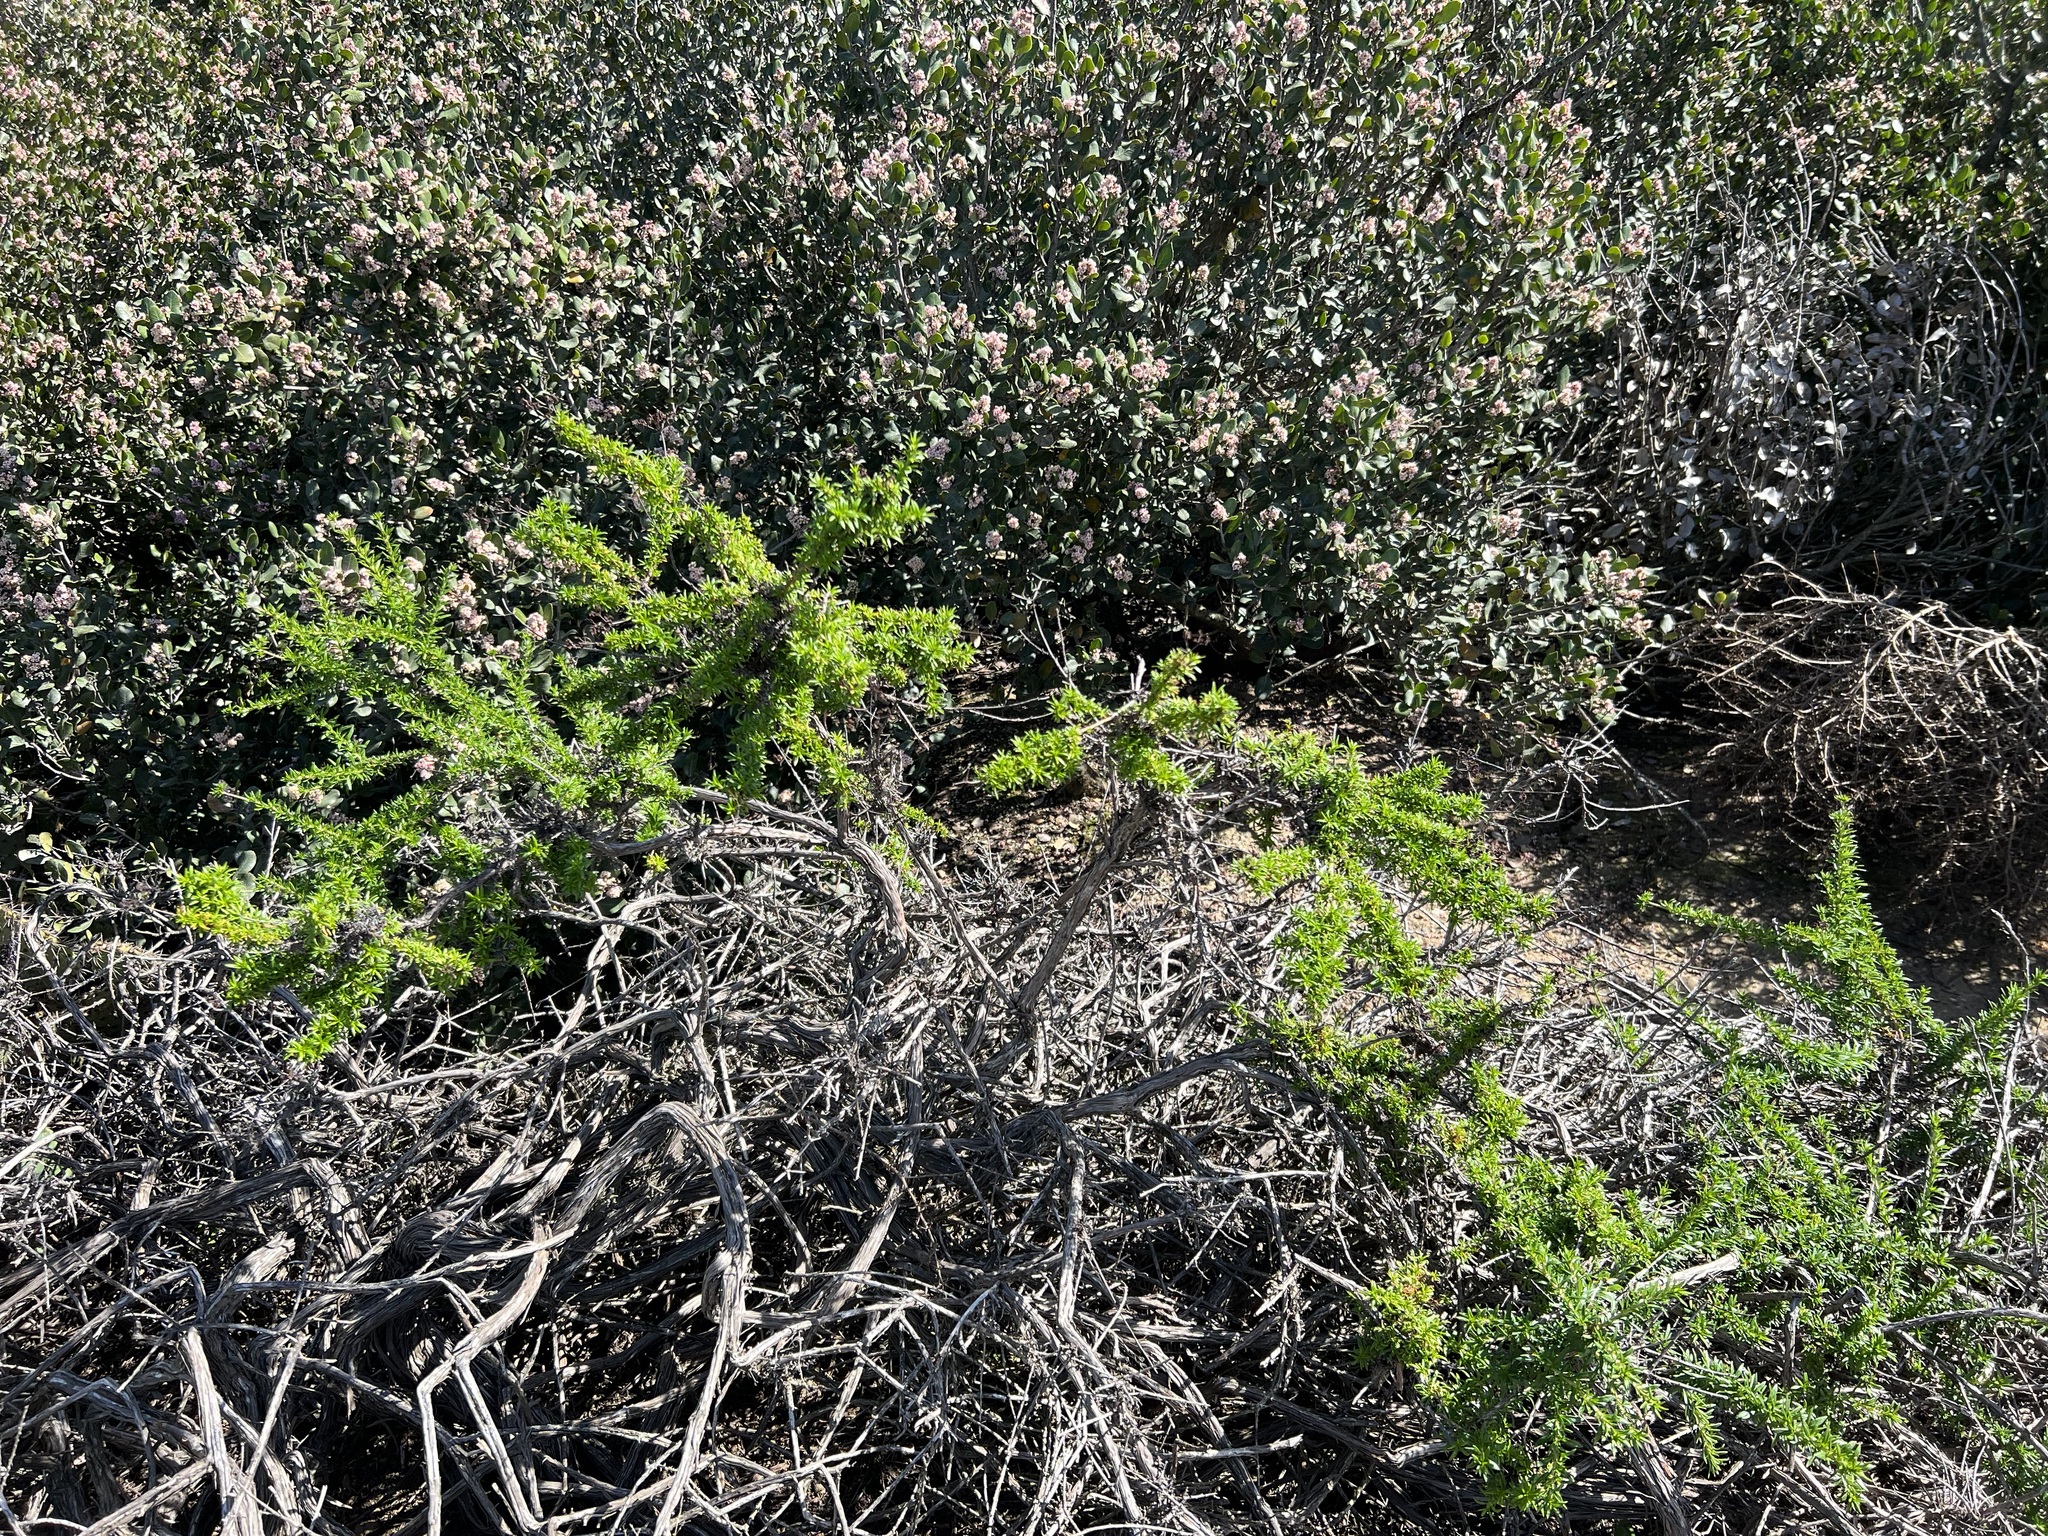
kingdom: Plantae
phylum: Tracheophyta
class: Magnoliopsida
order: Caryophyllales
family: Polygonaceae
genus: Eriogonum
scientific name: Eriogonum fasciculatum
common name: California wild buckwheat
